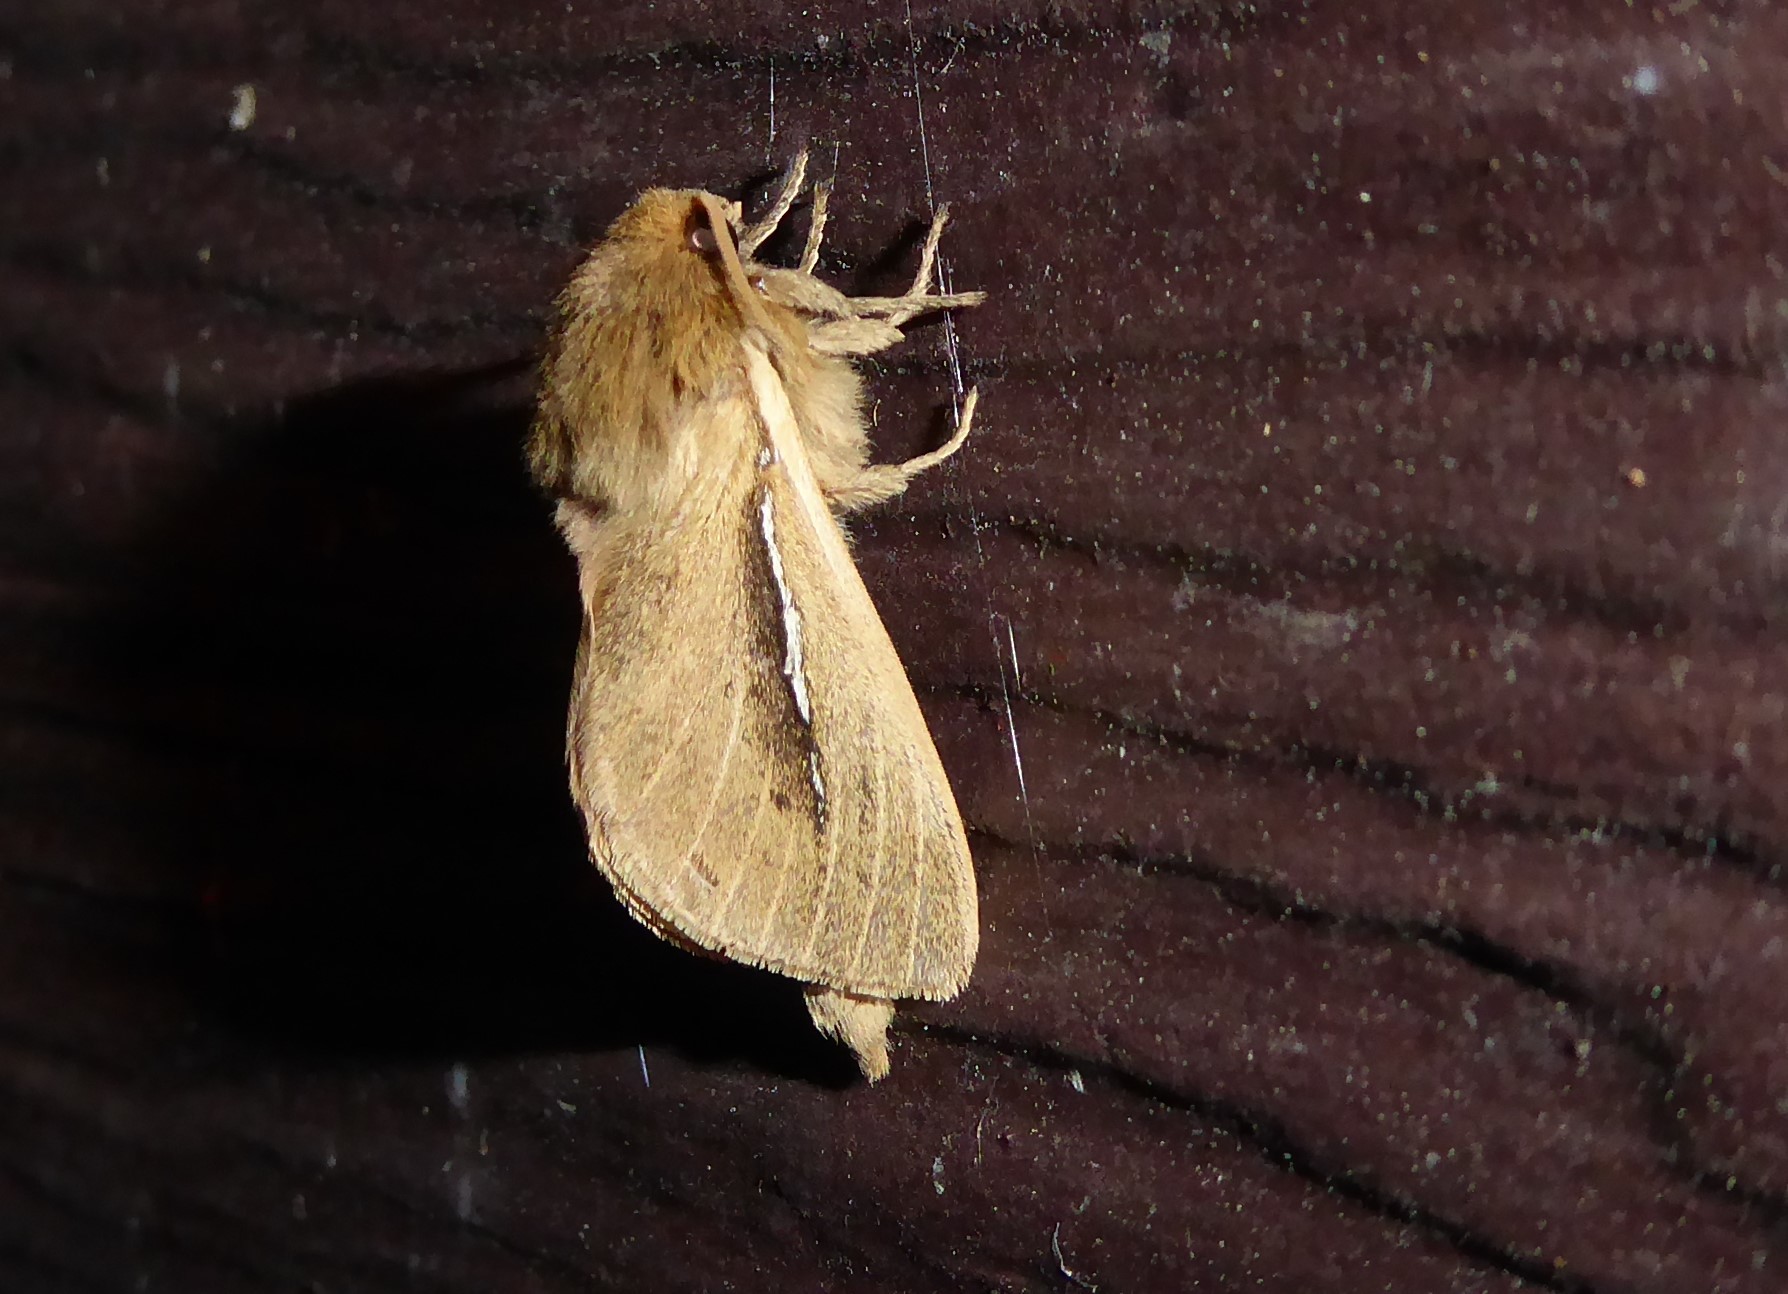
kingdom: Animalia
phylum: Arthropoda
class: Insecta
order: Lepidoptera
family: Hepialidae
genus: Wiseana
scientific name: Wiseana umbraculatus
